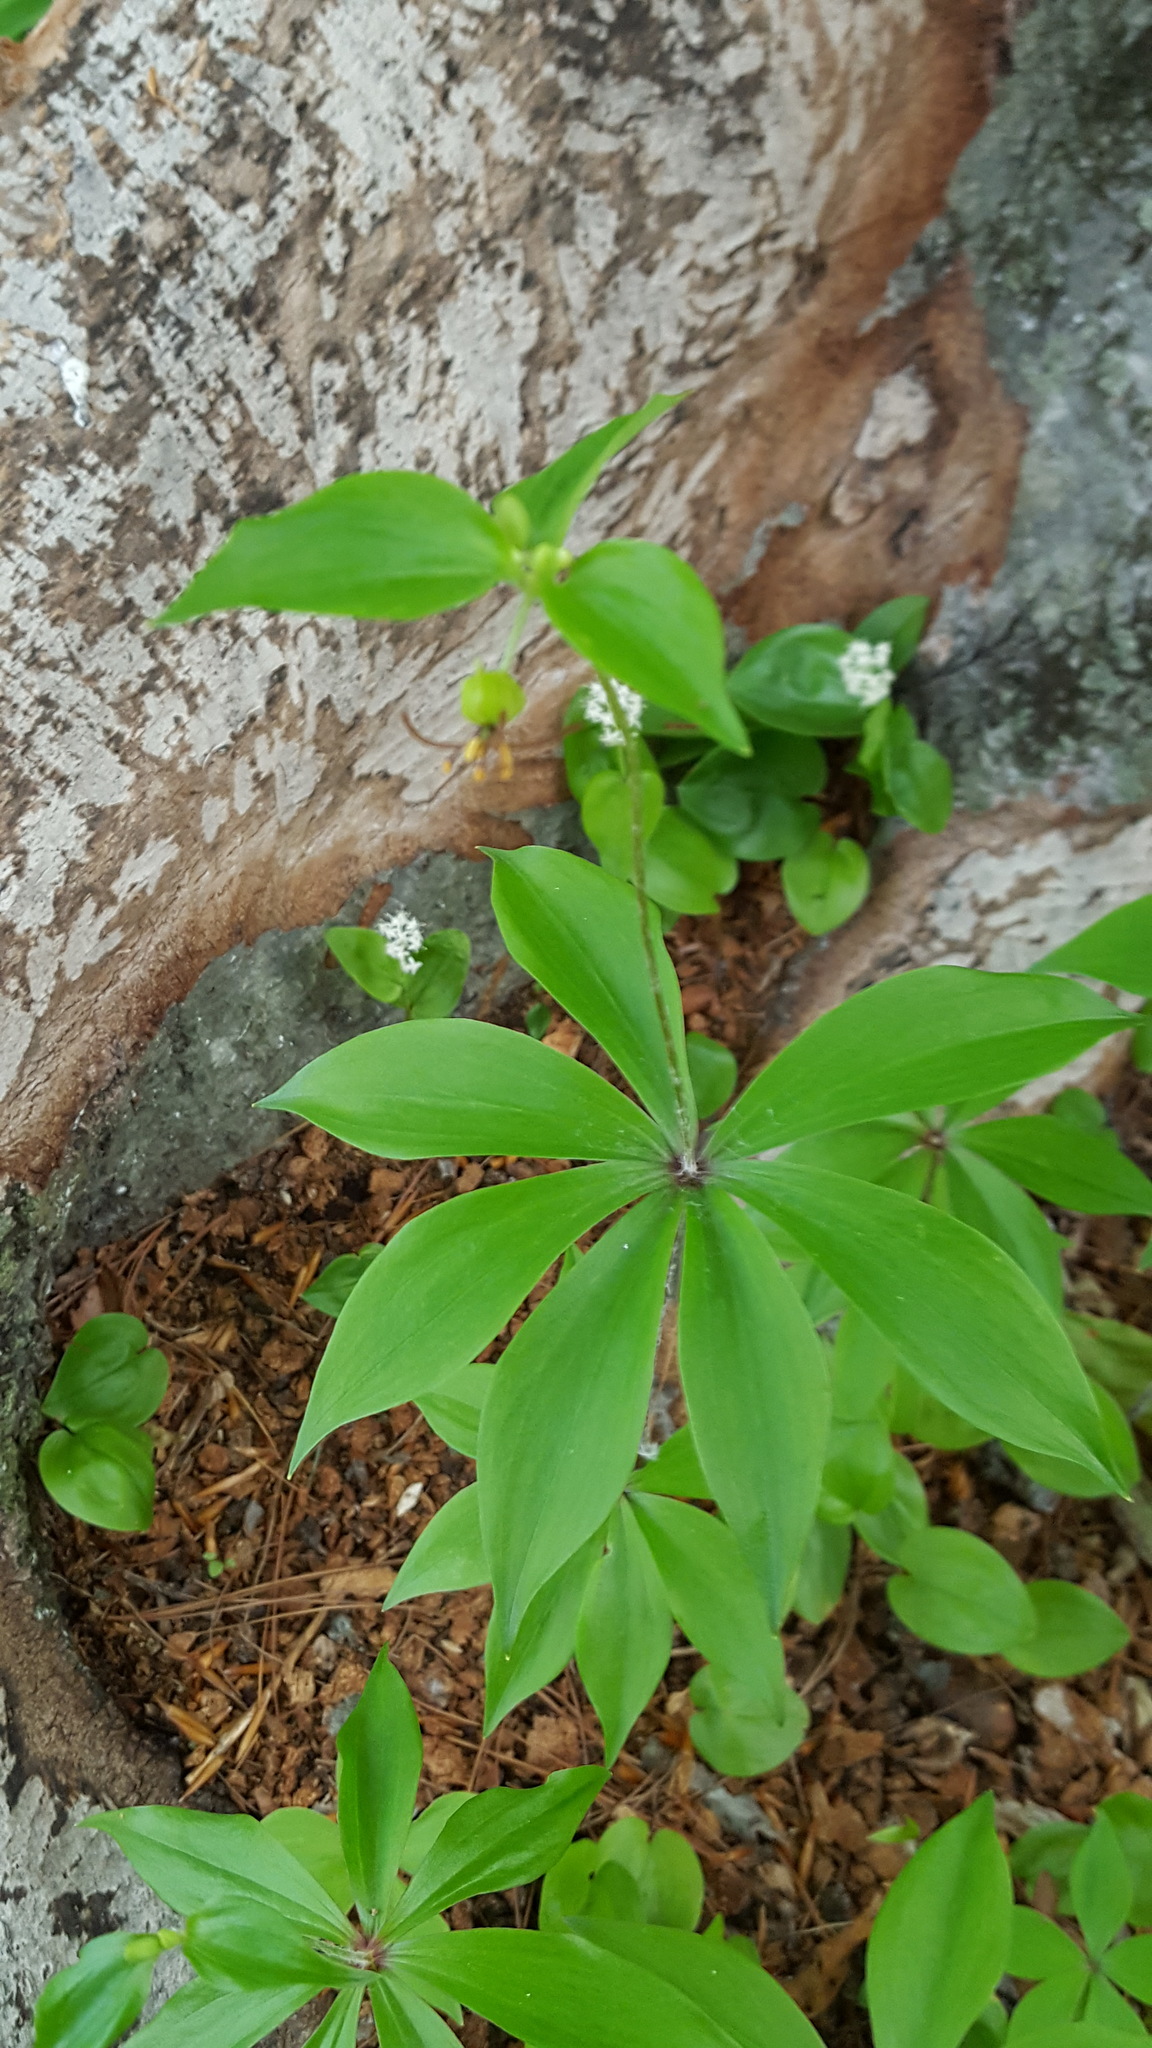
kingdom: Plantae
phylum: Tracheophyta
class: Liliopsida
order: Liliales
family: Liliaceae
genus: Medeola
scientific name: Medeola virginiana
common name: Indian cucumber-root
